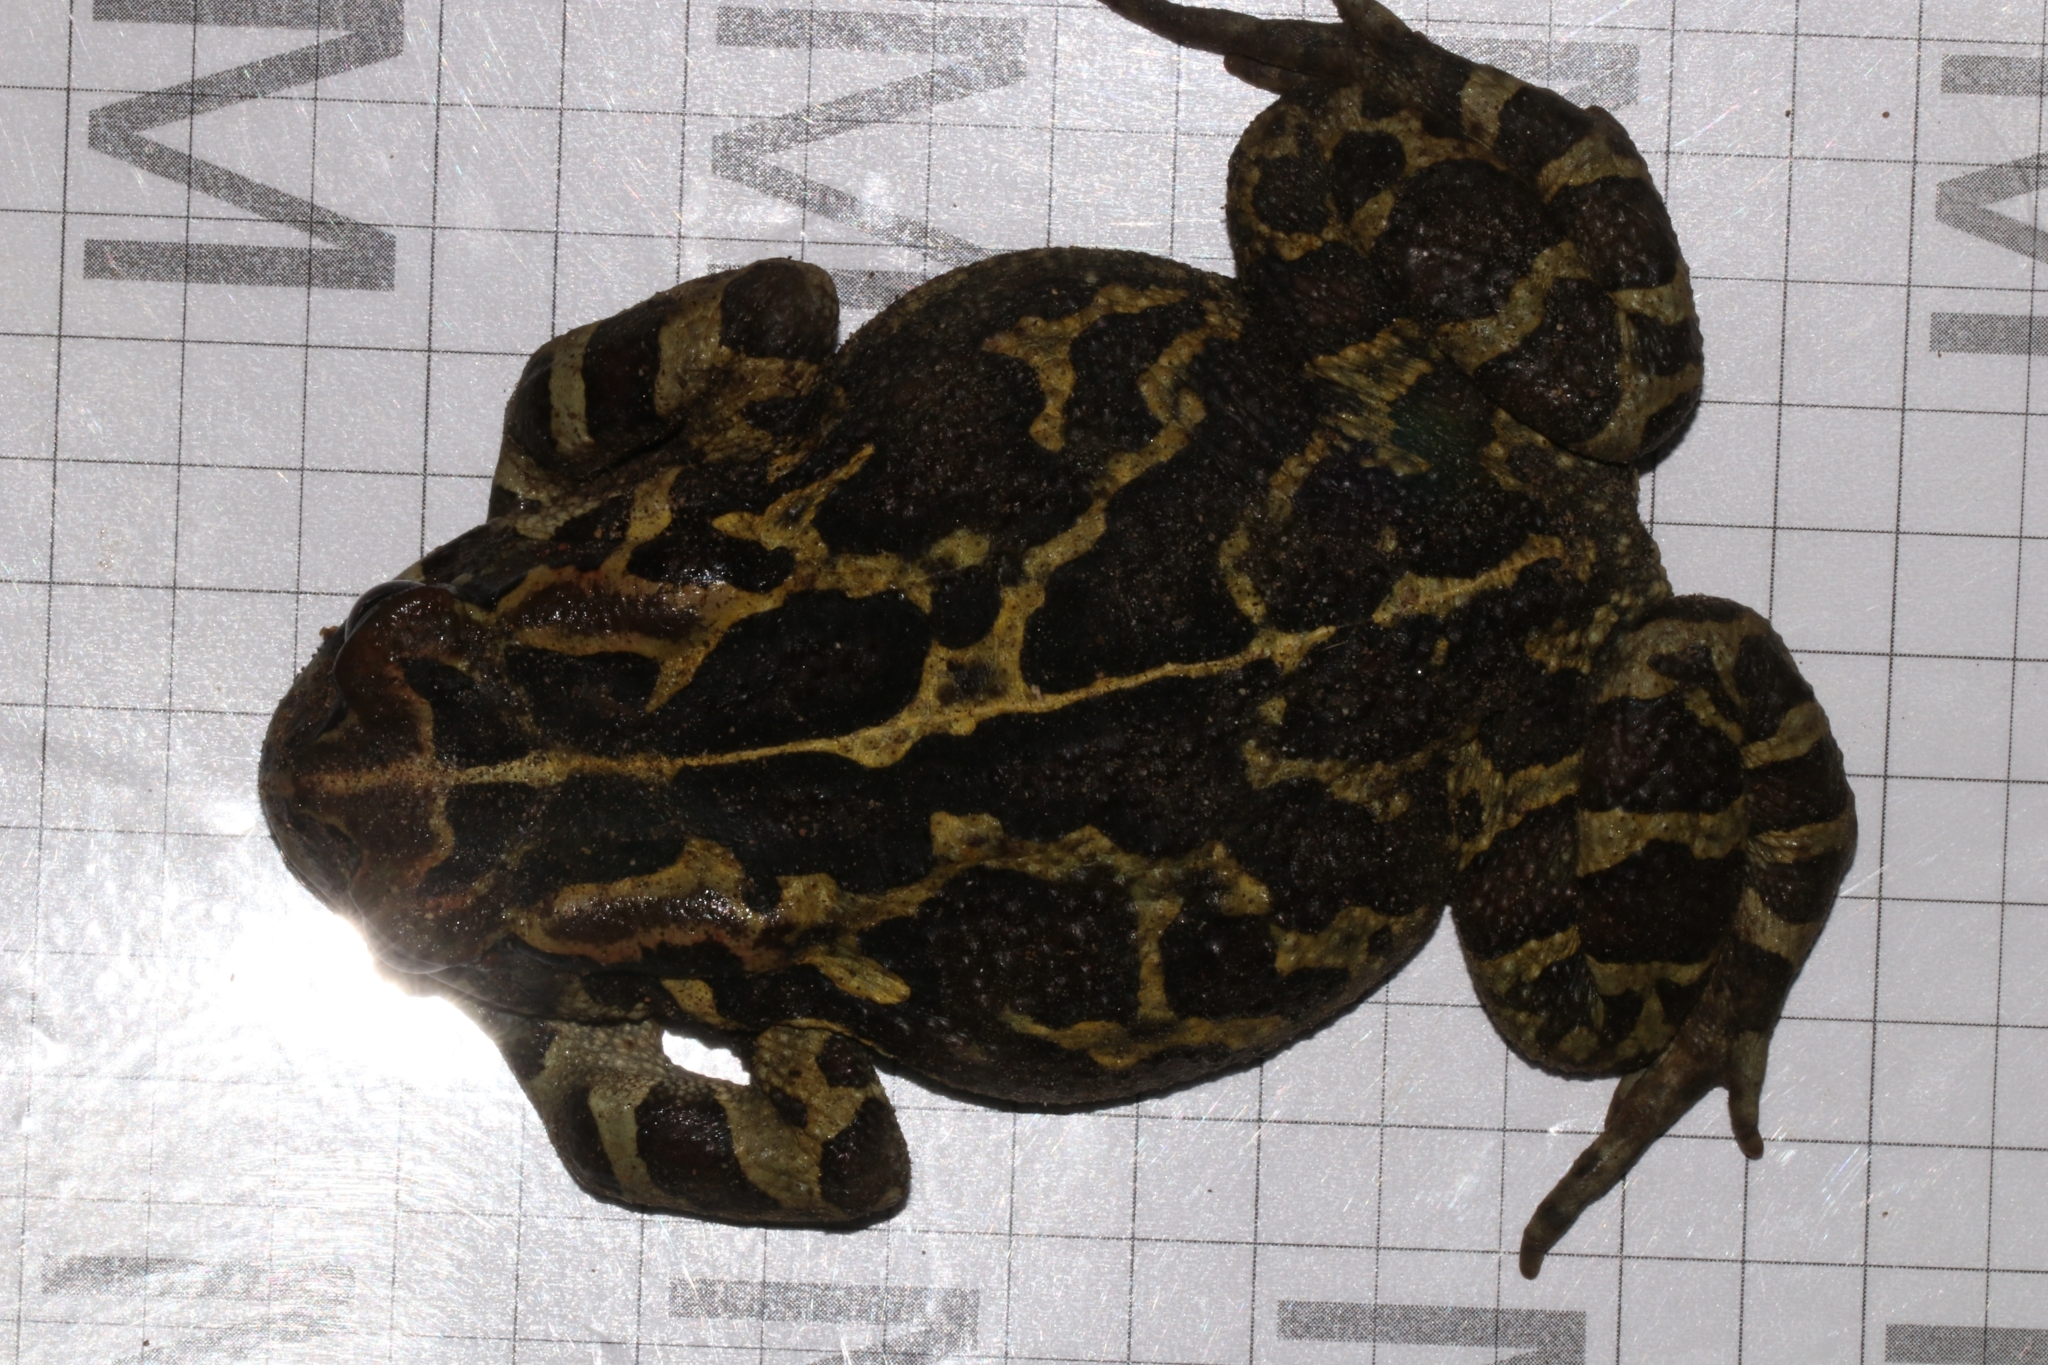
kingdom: Animalia
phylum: Chordata
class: Amphibia
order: Anura
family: Bufonidae
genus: Sclerophrys
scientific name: Sclerophrys pantherina
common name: Panther toad
